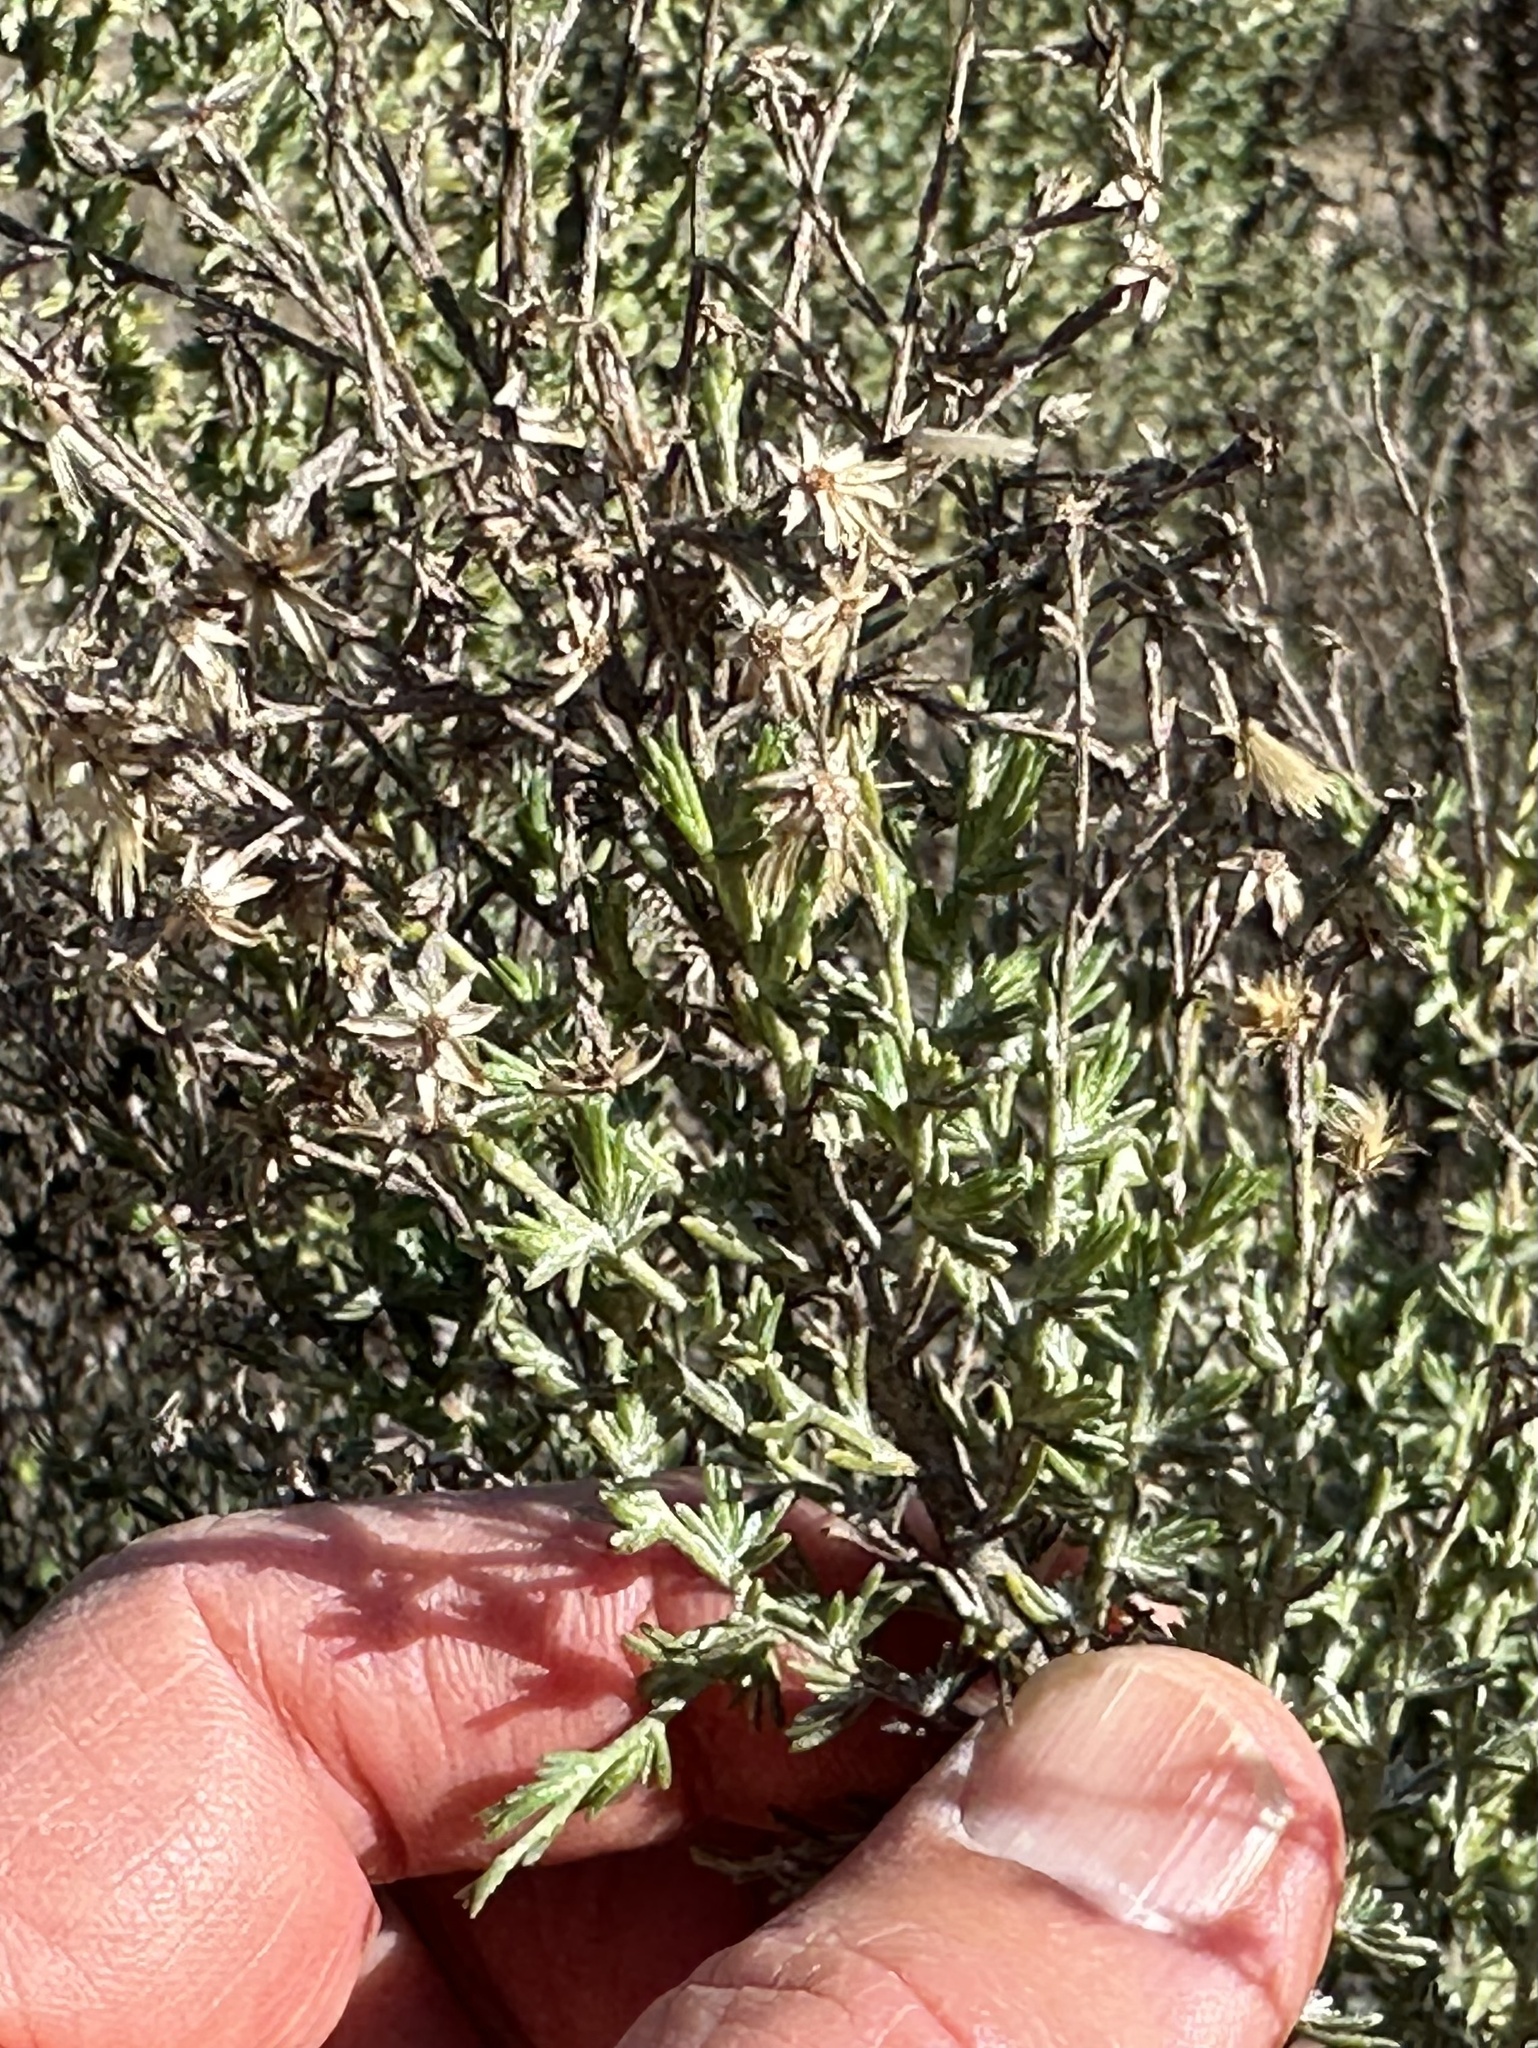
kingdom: Plantae
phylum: Tracheophyta
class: Magnoliopsida
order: Asterales
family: Asteraceae
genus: Ericameria
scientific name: Ericameria ericoides
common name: California goldenbush
